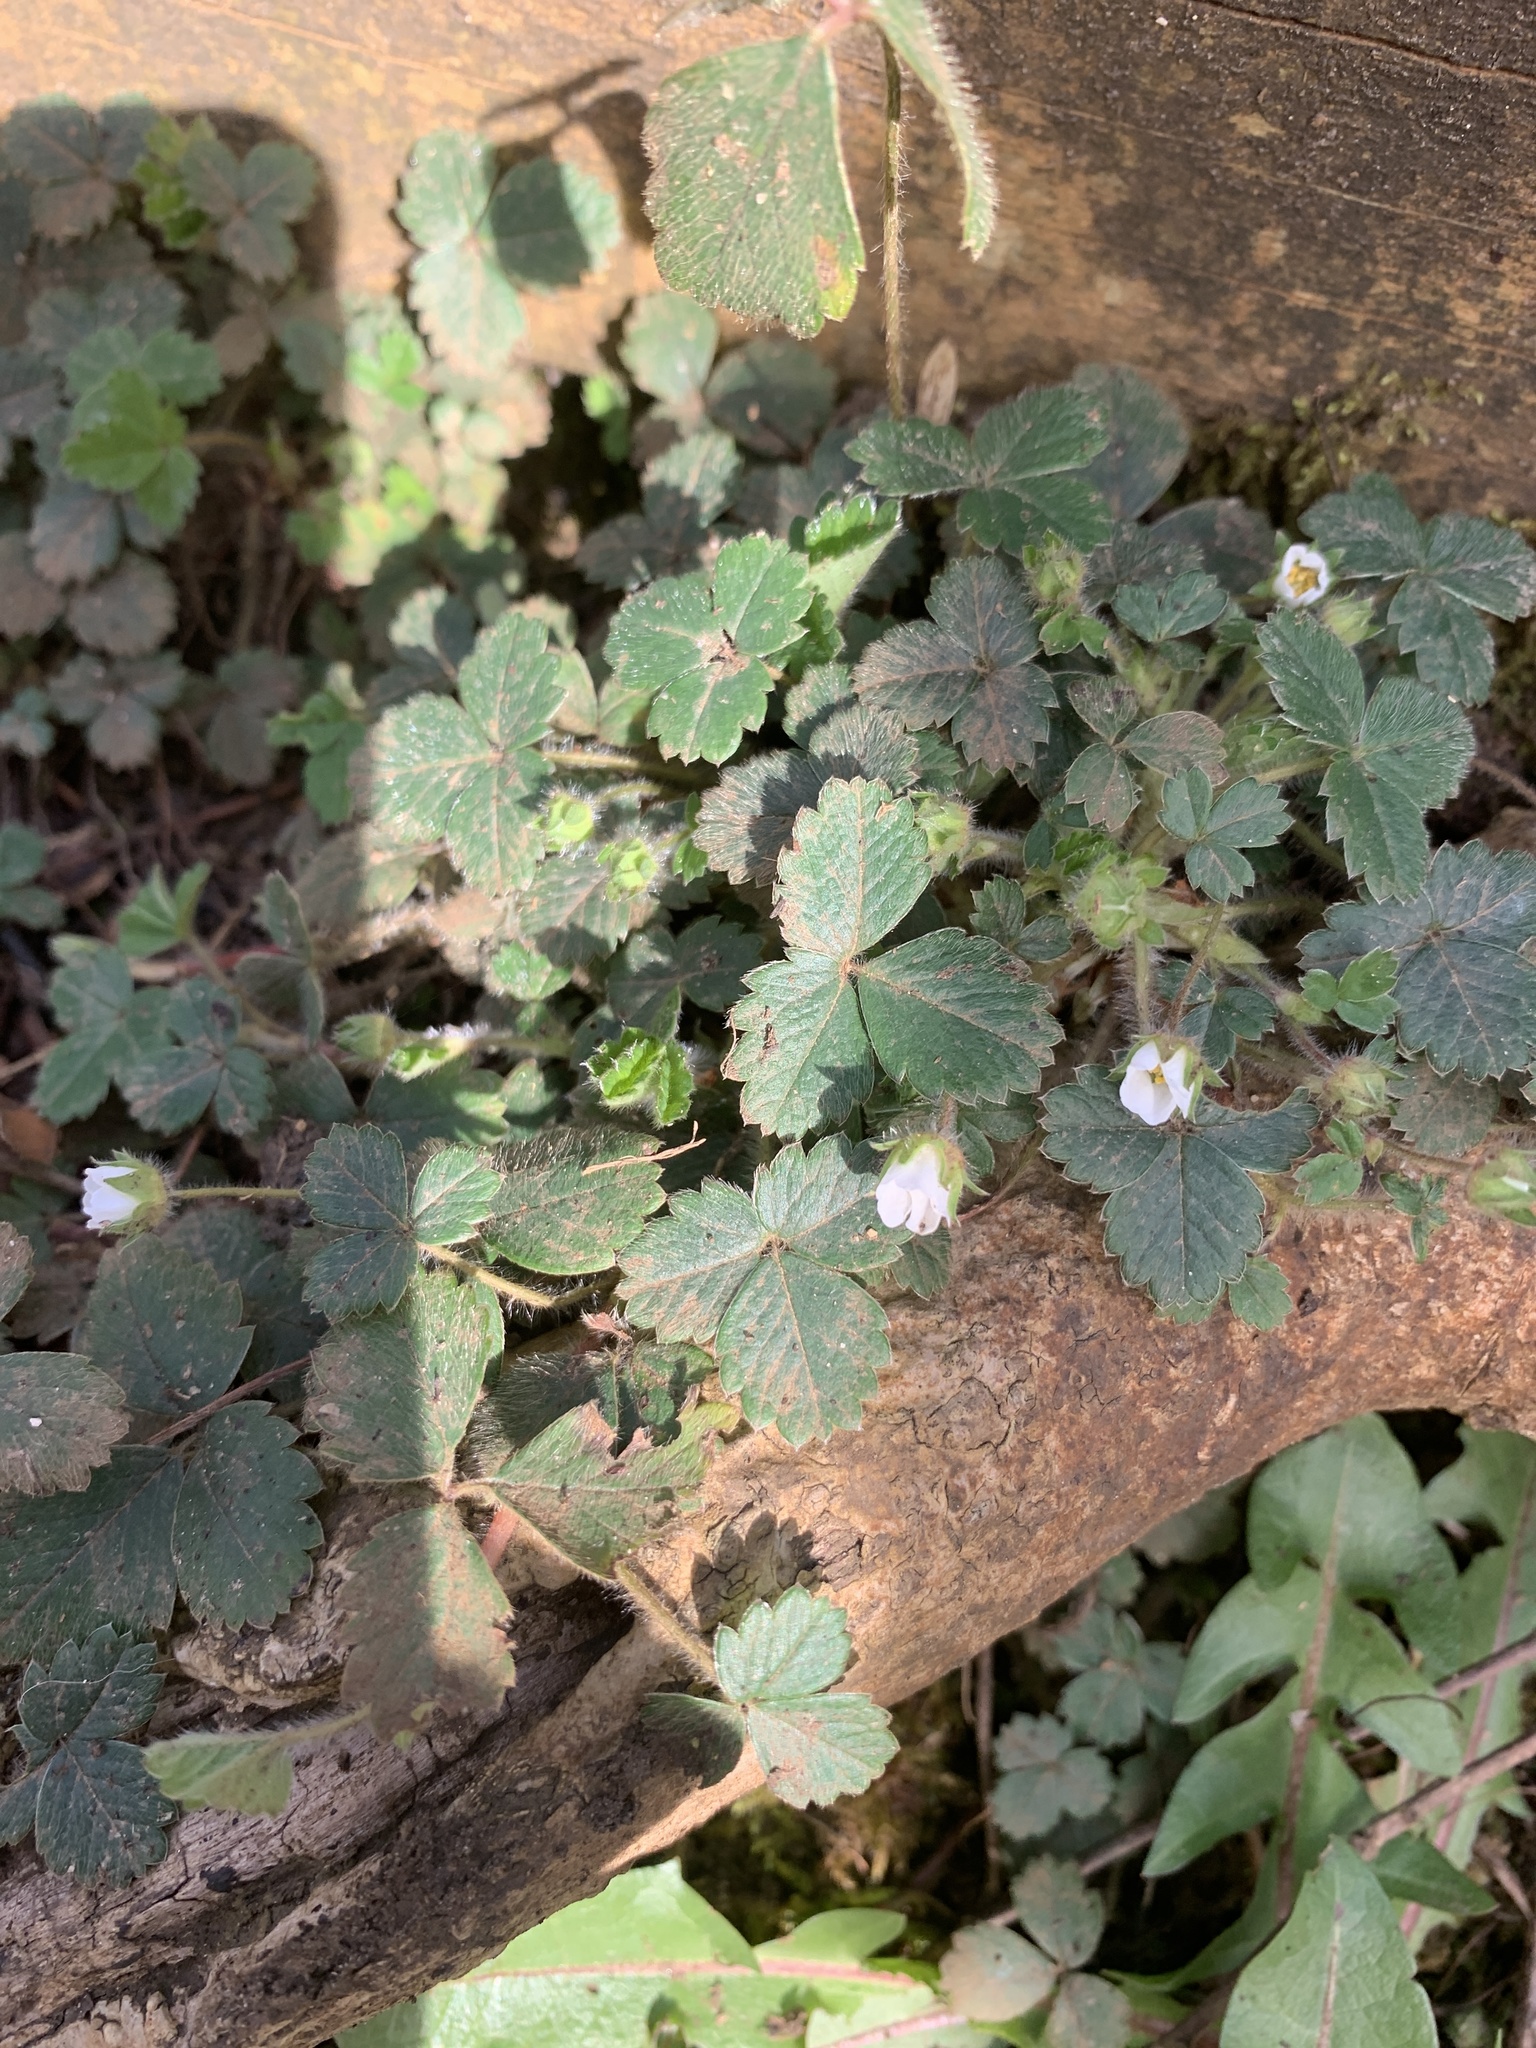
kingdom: Plantae
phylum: Tracheophyta
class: Magnoliopsida
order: Rosales
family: Rosaceae
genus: Potentilla
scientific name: Potentilla sterilis
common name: Barren strawberry
